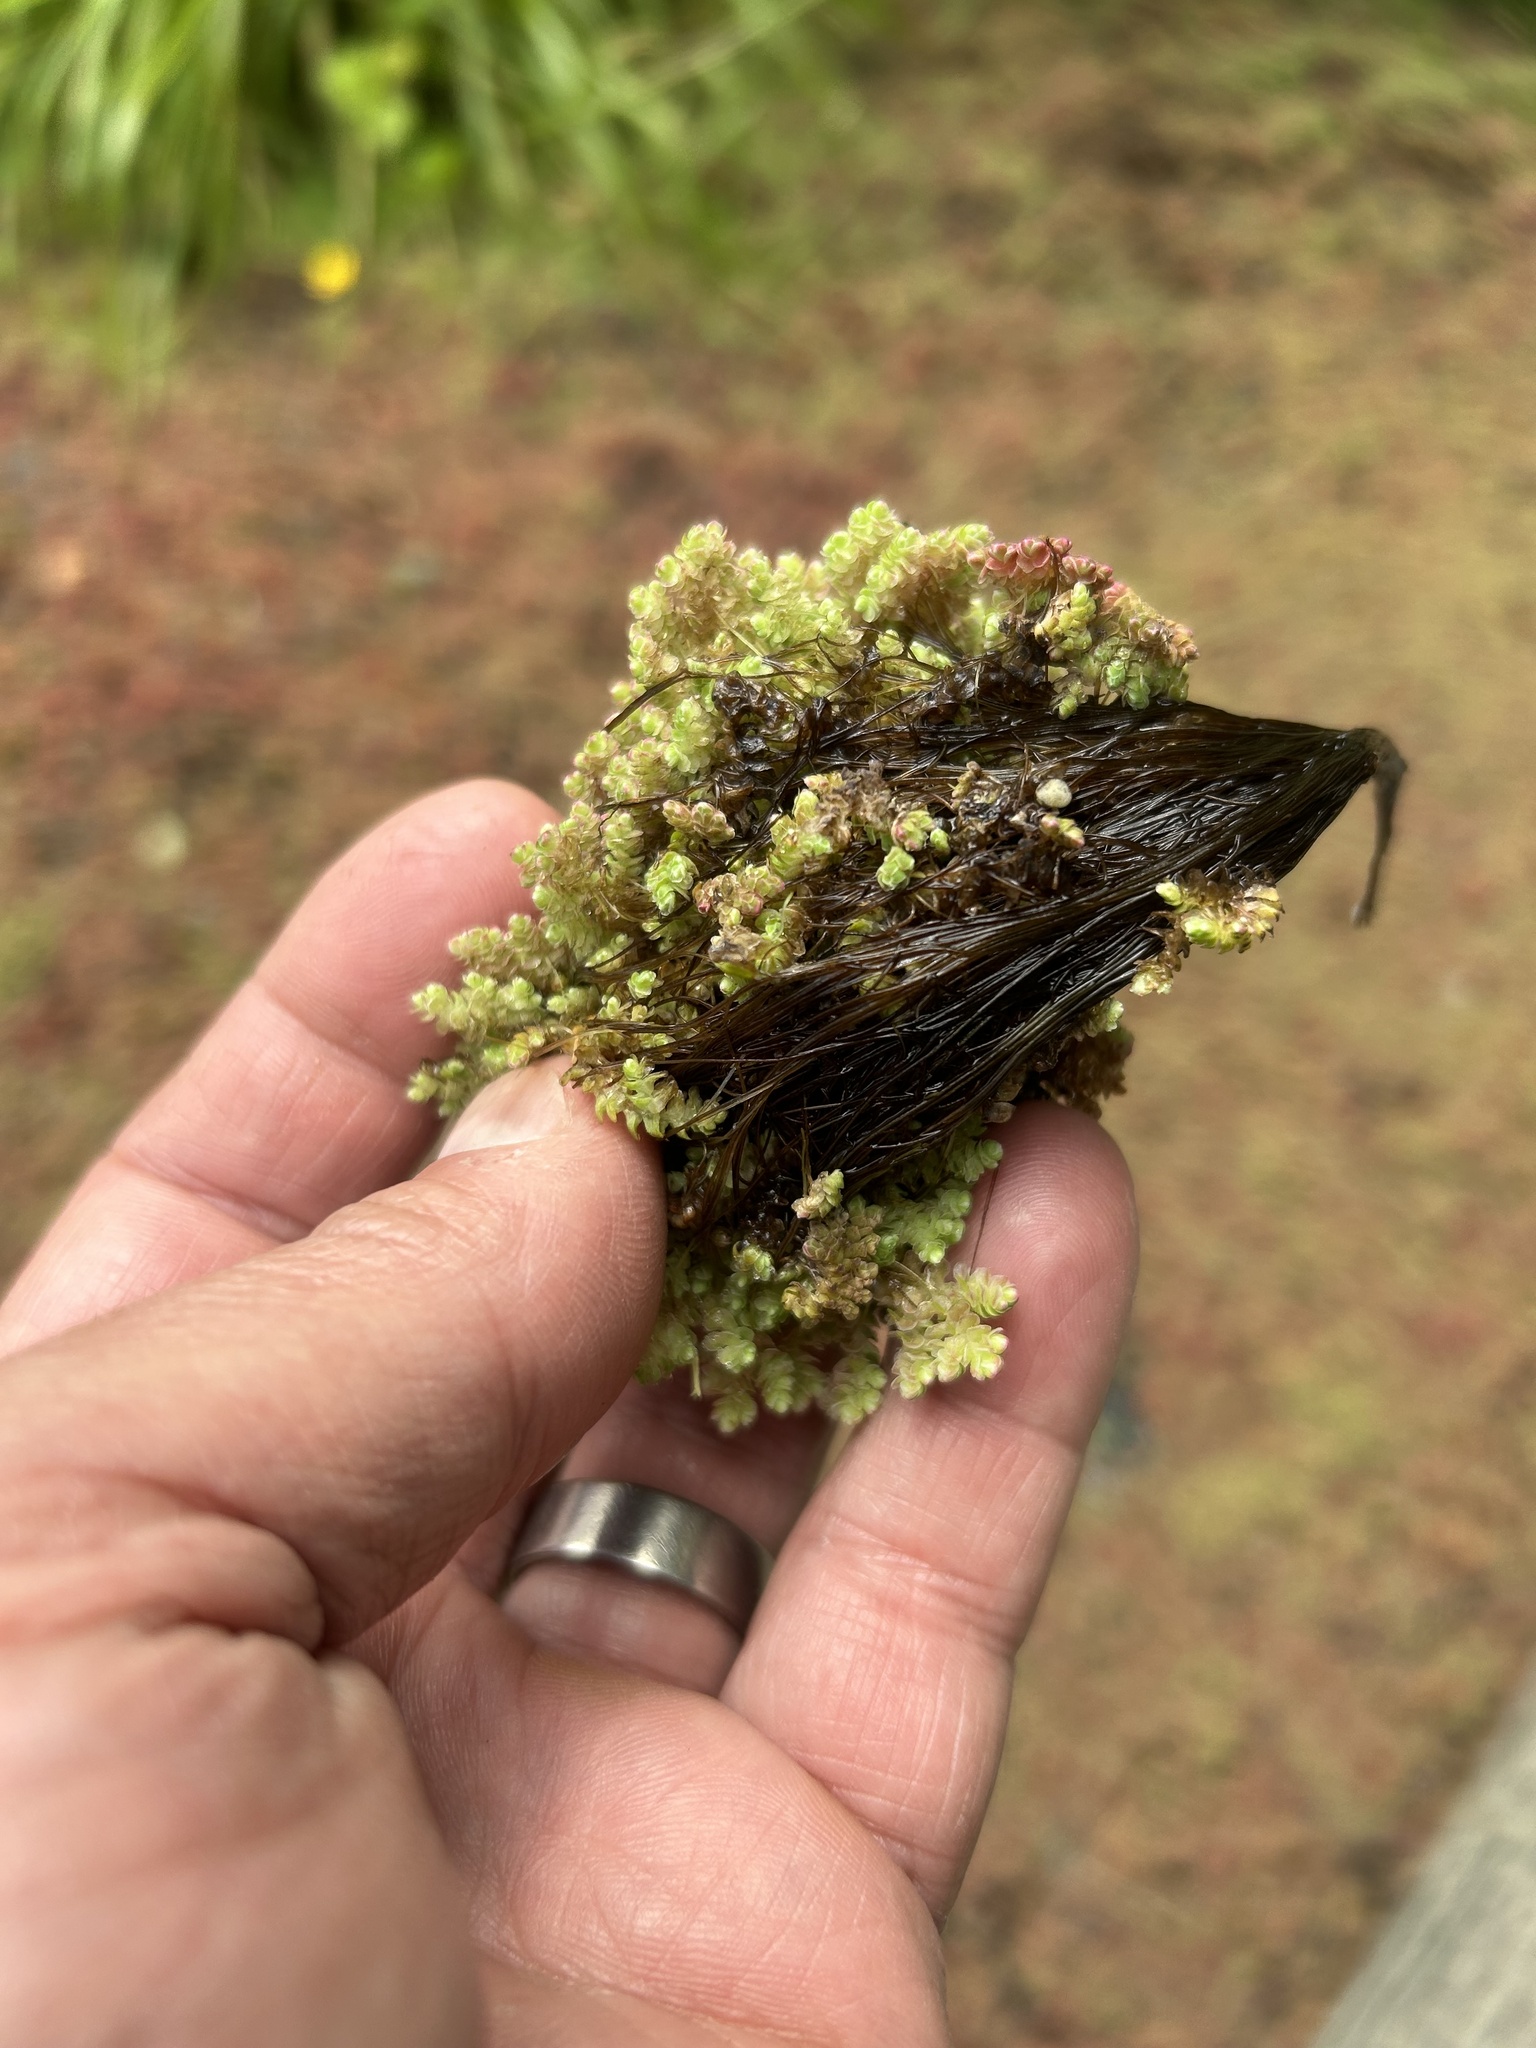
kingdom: Plantae
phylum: Tracheophyta
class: Polypodiopsida
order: Salviniales
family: Salviniaceae
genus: Azolla
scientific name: Azolla rubra
